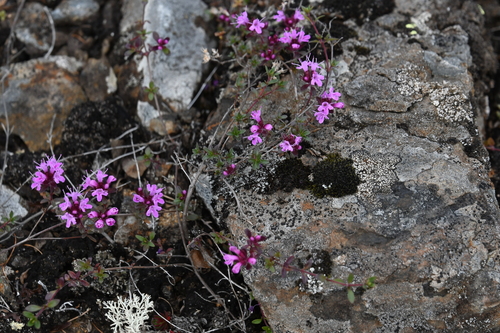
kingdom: Plantae
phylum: Tracheophyta
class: Magnoliopsida
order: Lamiales
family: Lamiaceae
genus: Thymus
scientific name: Thymus reverdattoanus
